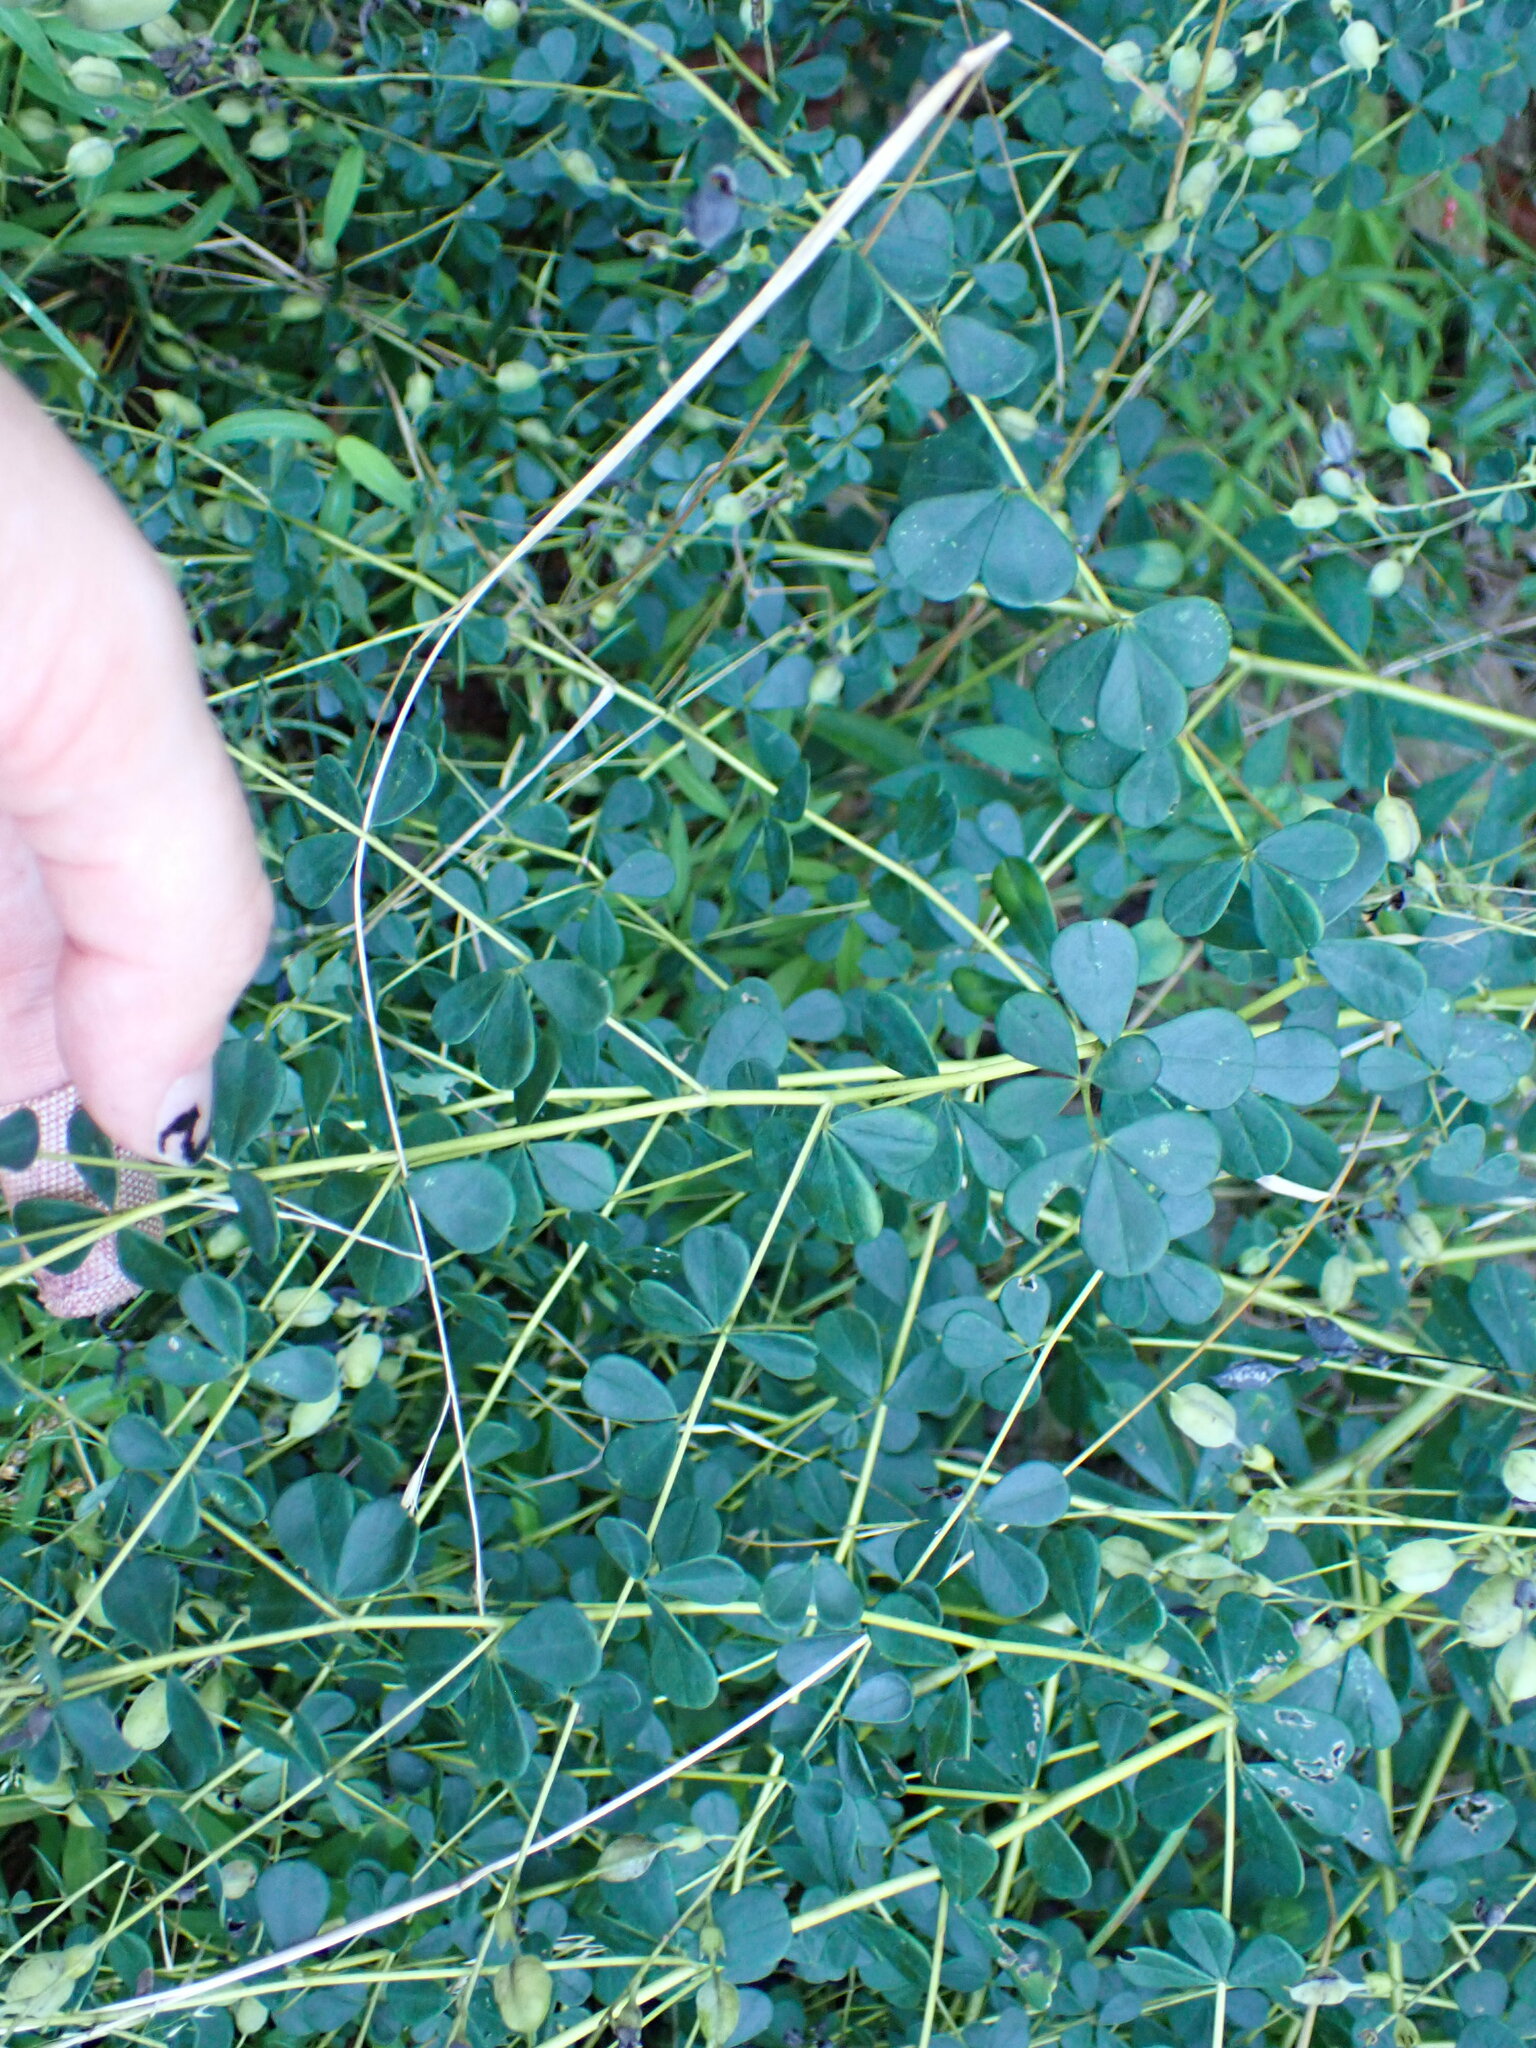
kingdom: Plantae
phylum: Tracheophyta
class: Magnoliopsida
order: Fabales
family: Fabaceae
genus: Baptisia
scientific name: Baptisia tinctoria
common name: Wild indigo
